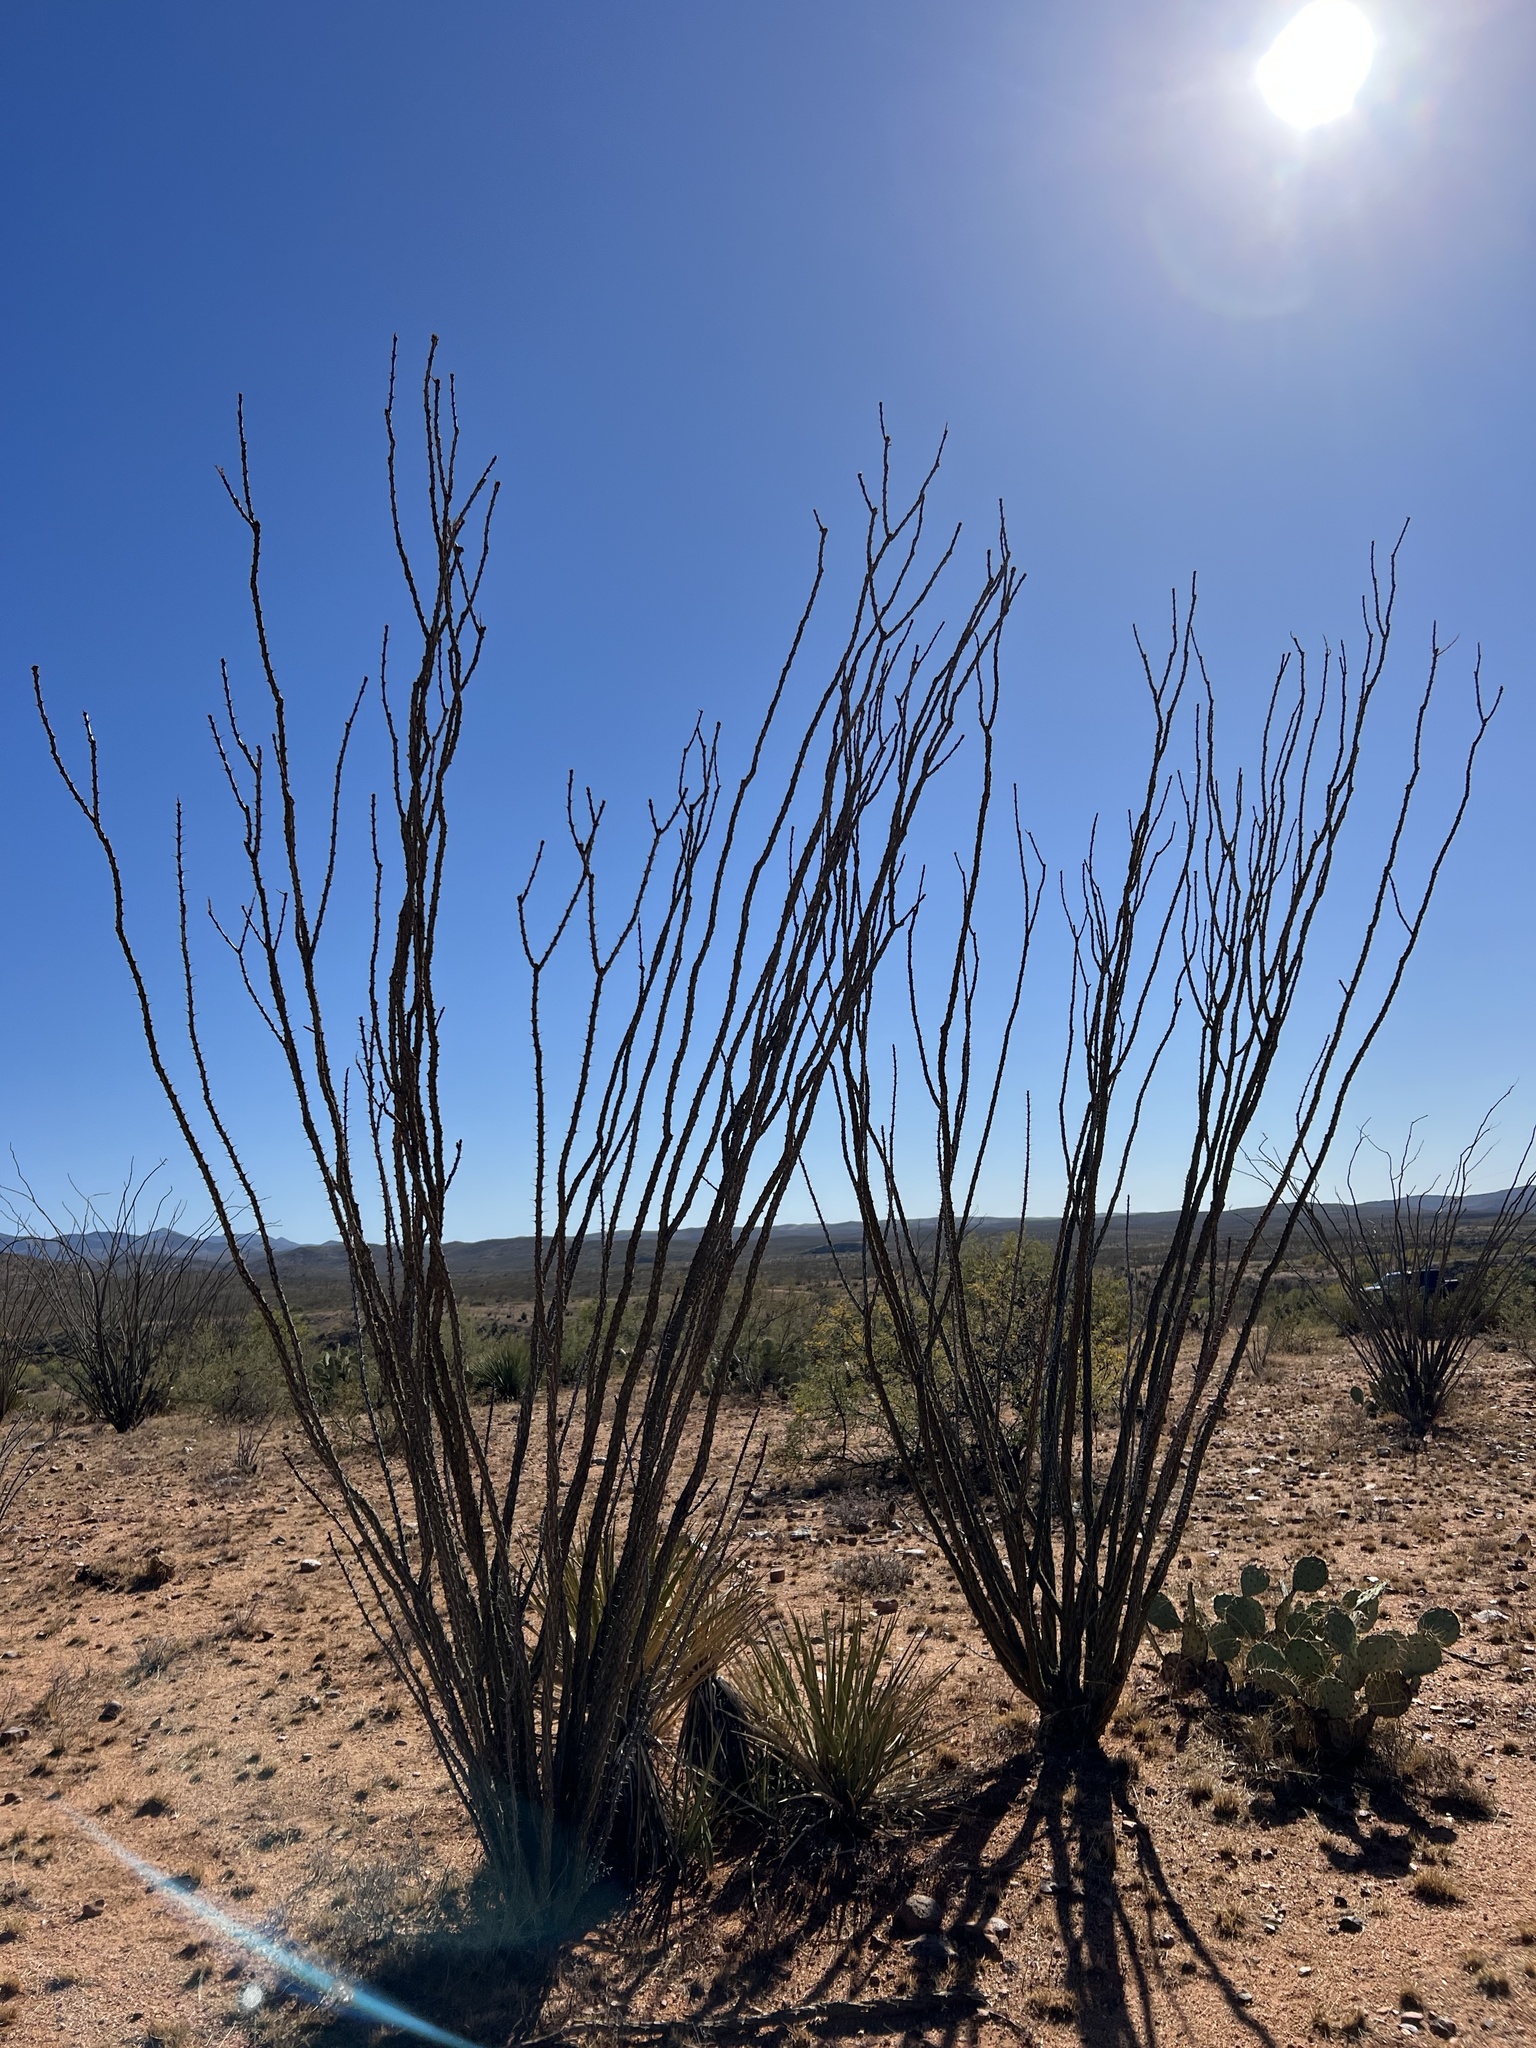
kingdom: Plantae
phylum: Tracheophyta
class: Magnoliopsida
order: Ericales
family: Fouquieriaceae
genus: Fouquieria
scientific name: Fouquieria splendens
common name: Vine-cactus
